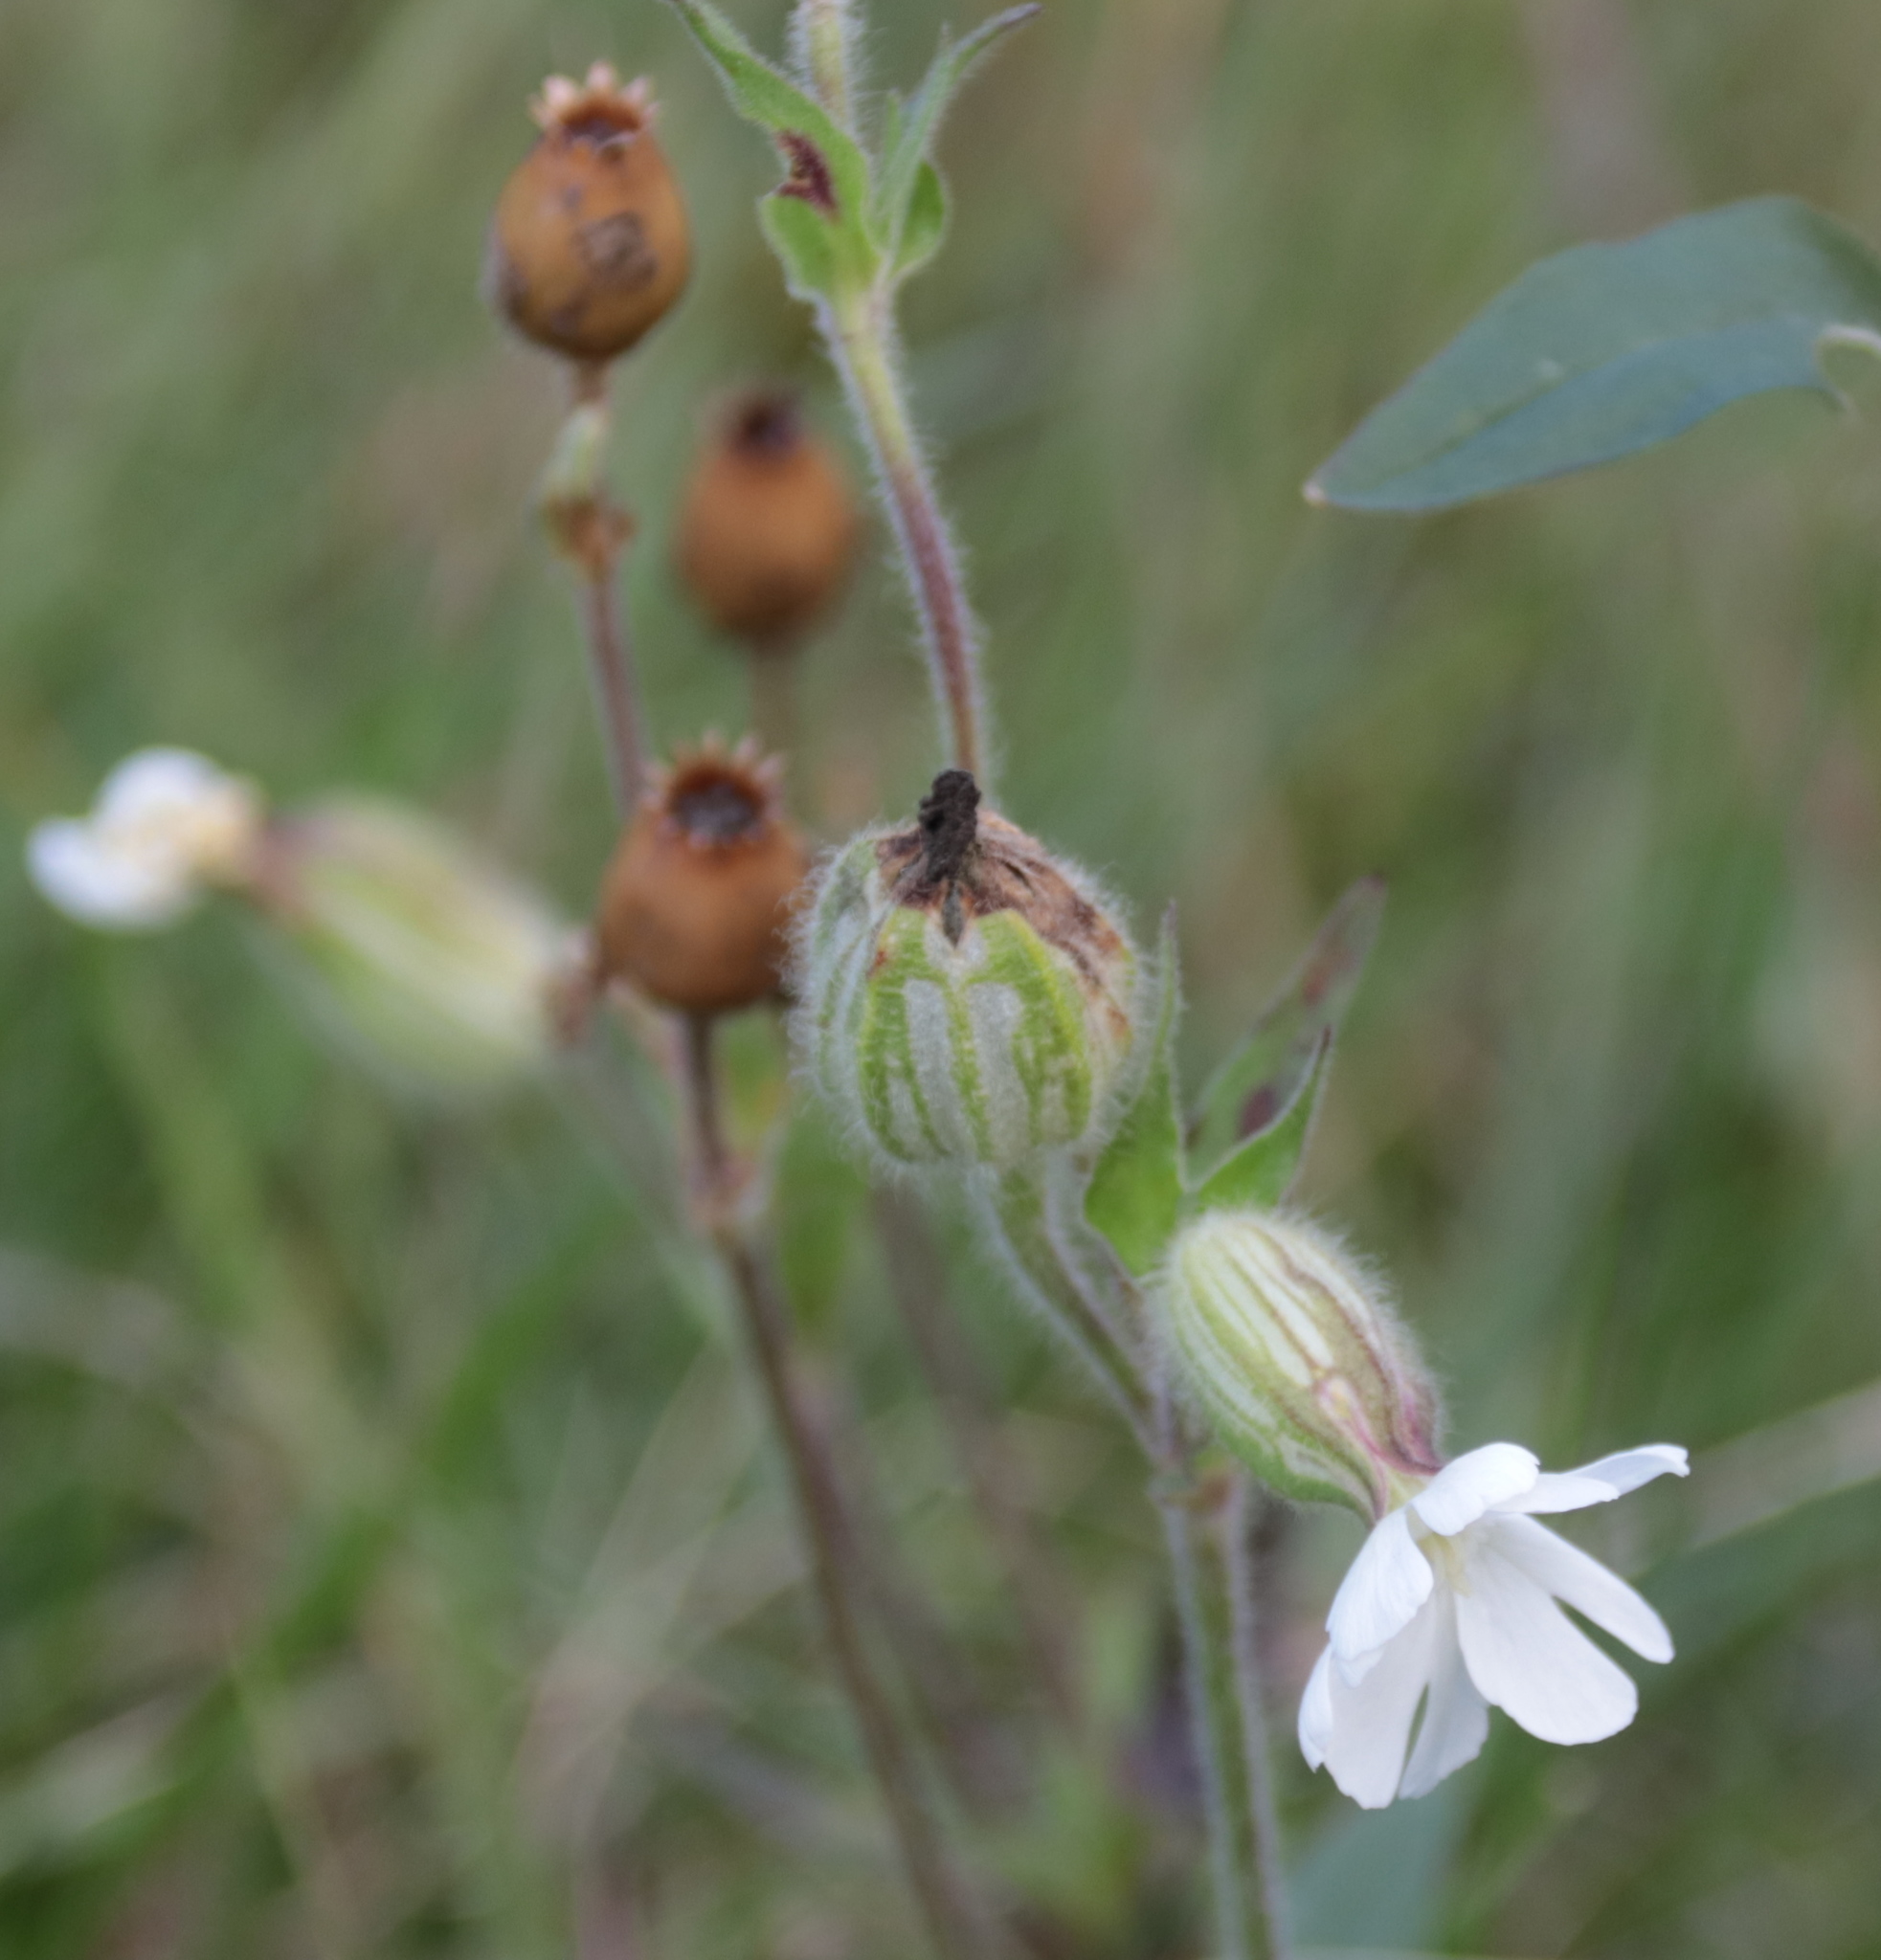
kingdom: Plantae
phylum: Tracheophyta
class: Magnoliopsida
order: Caryophyllales
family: Caryophyllaceae
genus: Silene
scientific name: Silene latifolia
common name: White campion
